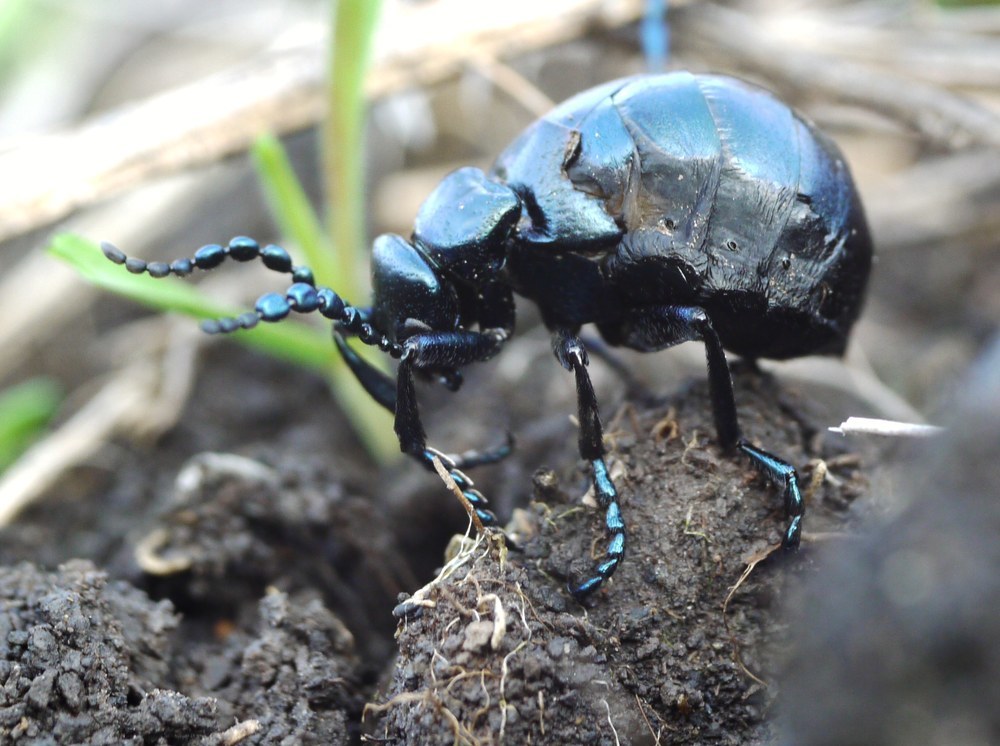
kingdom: Animalia
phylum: Arthropoda
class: Insecta
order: Coleoptera
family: Meloidae
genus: Meloe
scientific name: Meloe autumnalis
